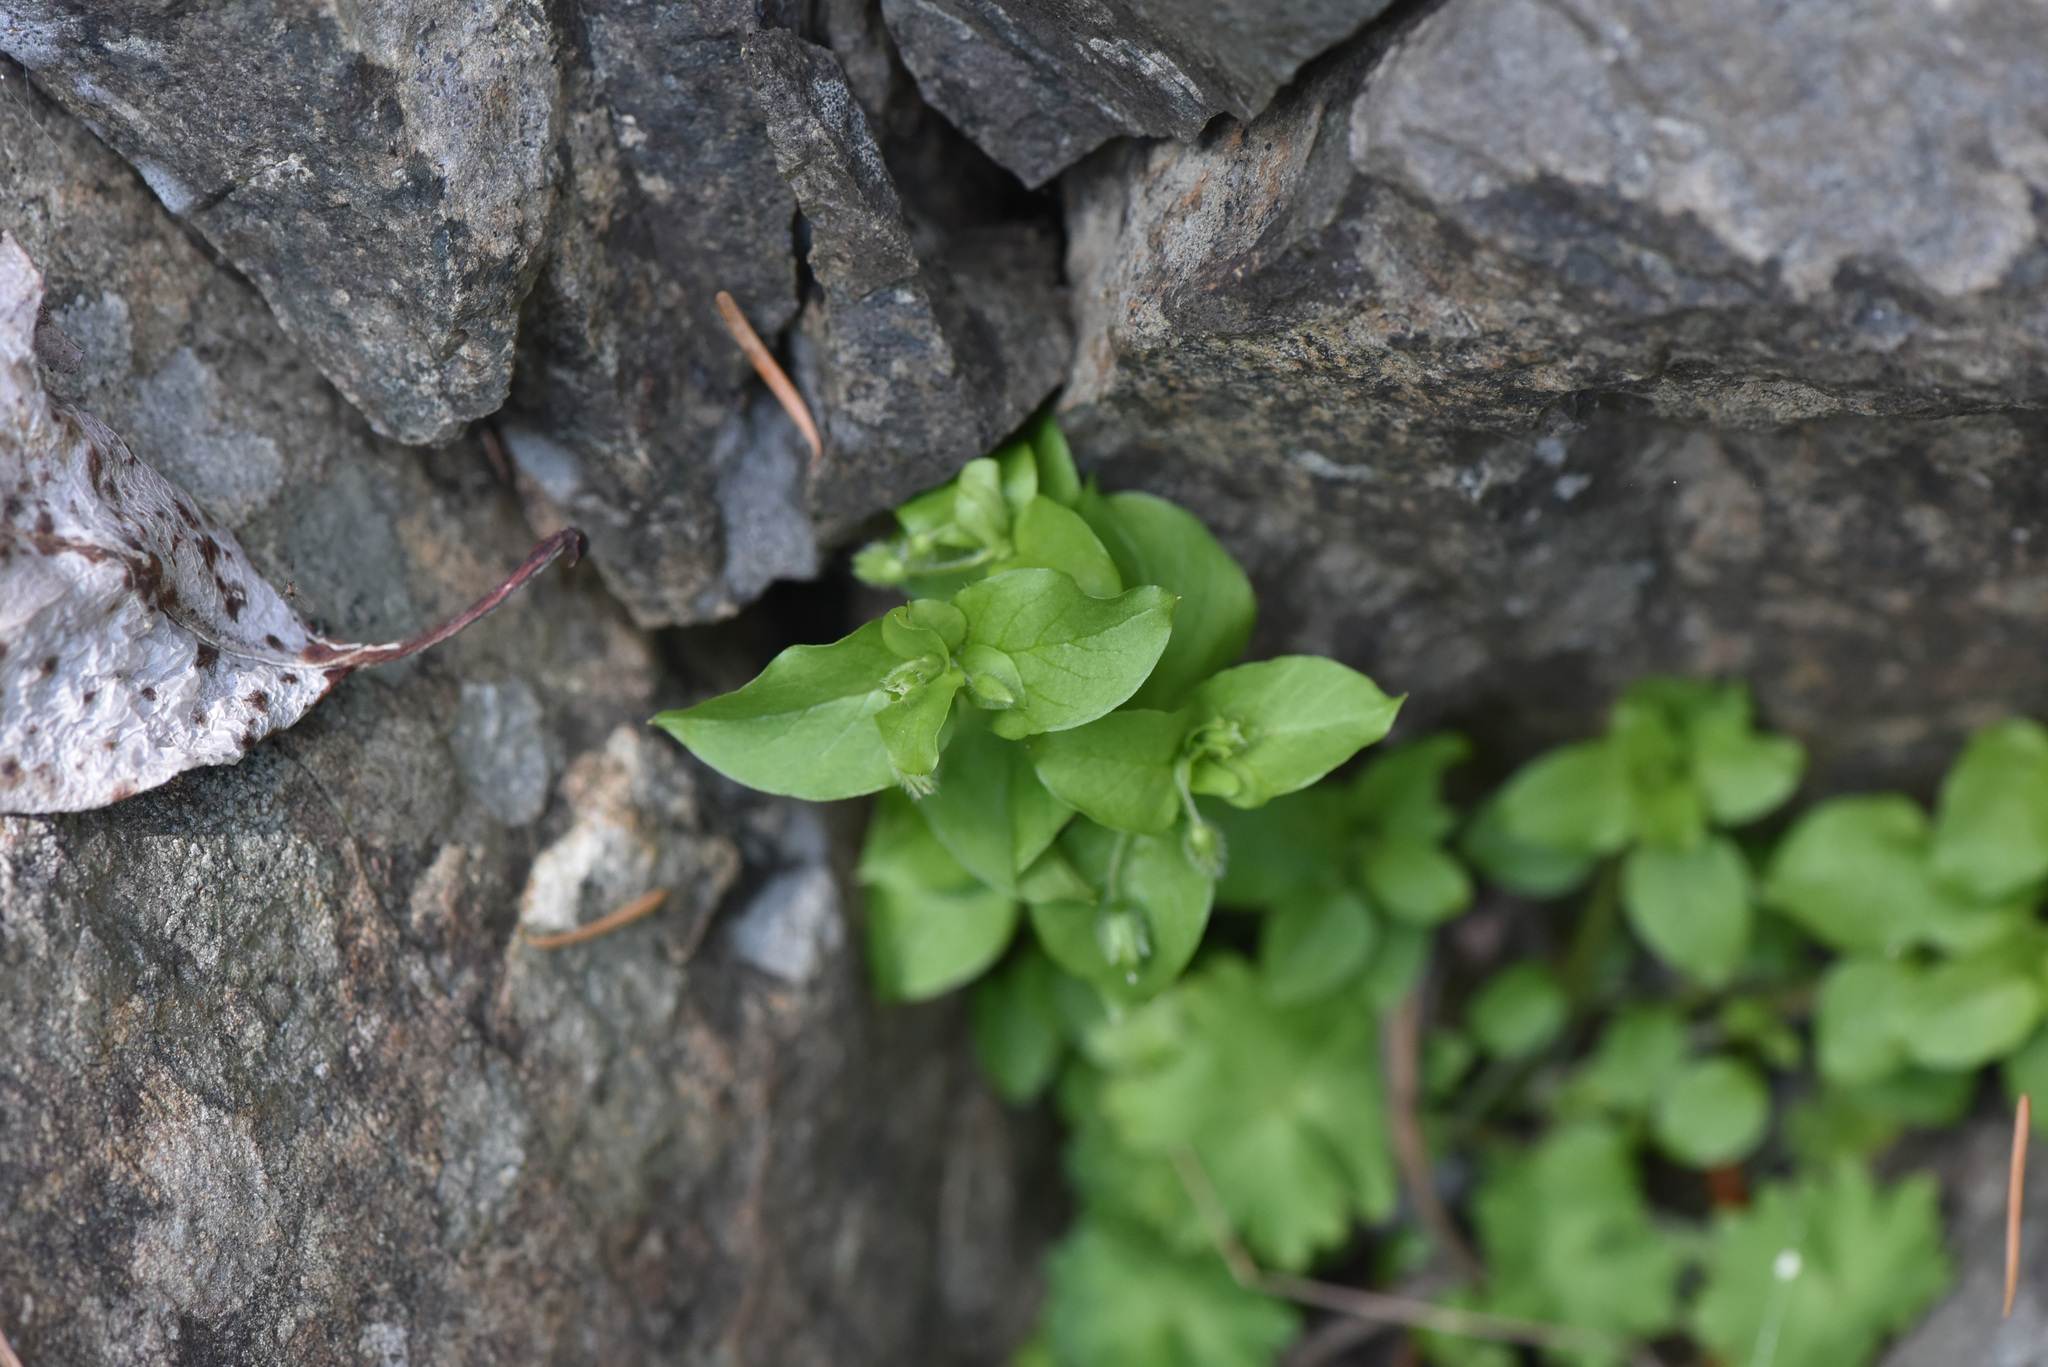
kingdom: Plantae
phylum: Tracheophyta
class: Magnoliopsida
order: Caryophyllales
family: Caryophyllaceae
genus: Stellaria
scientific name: Stellaria media
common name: Common chickweed
